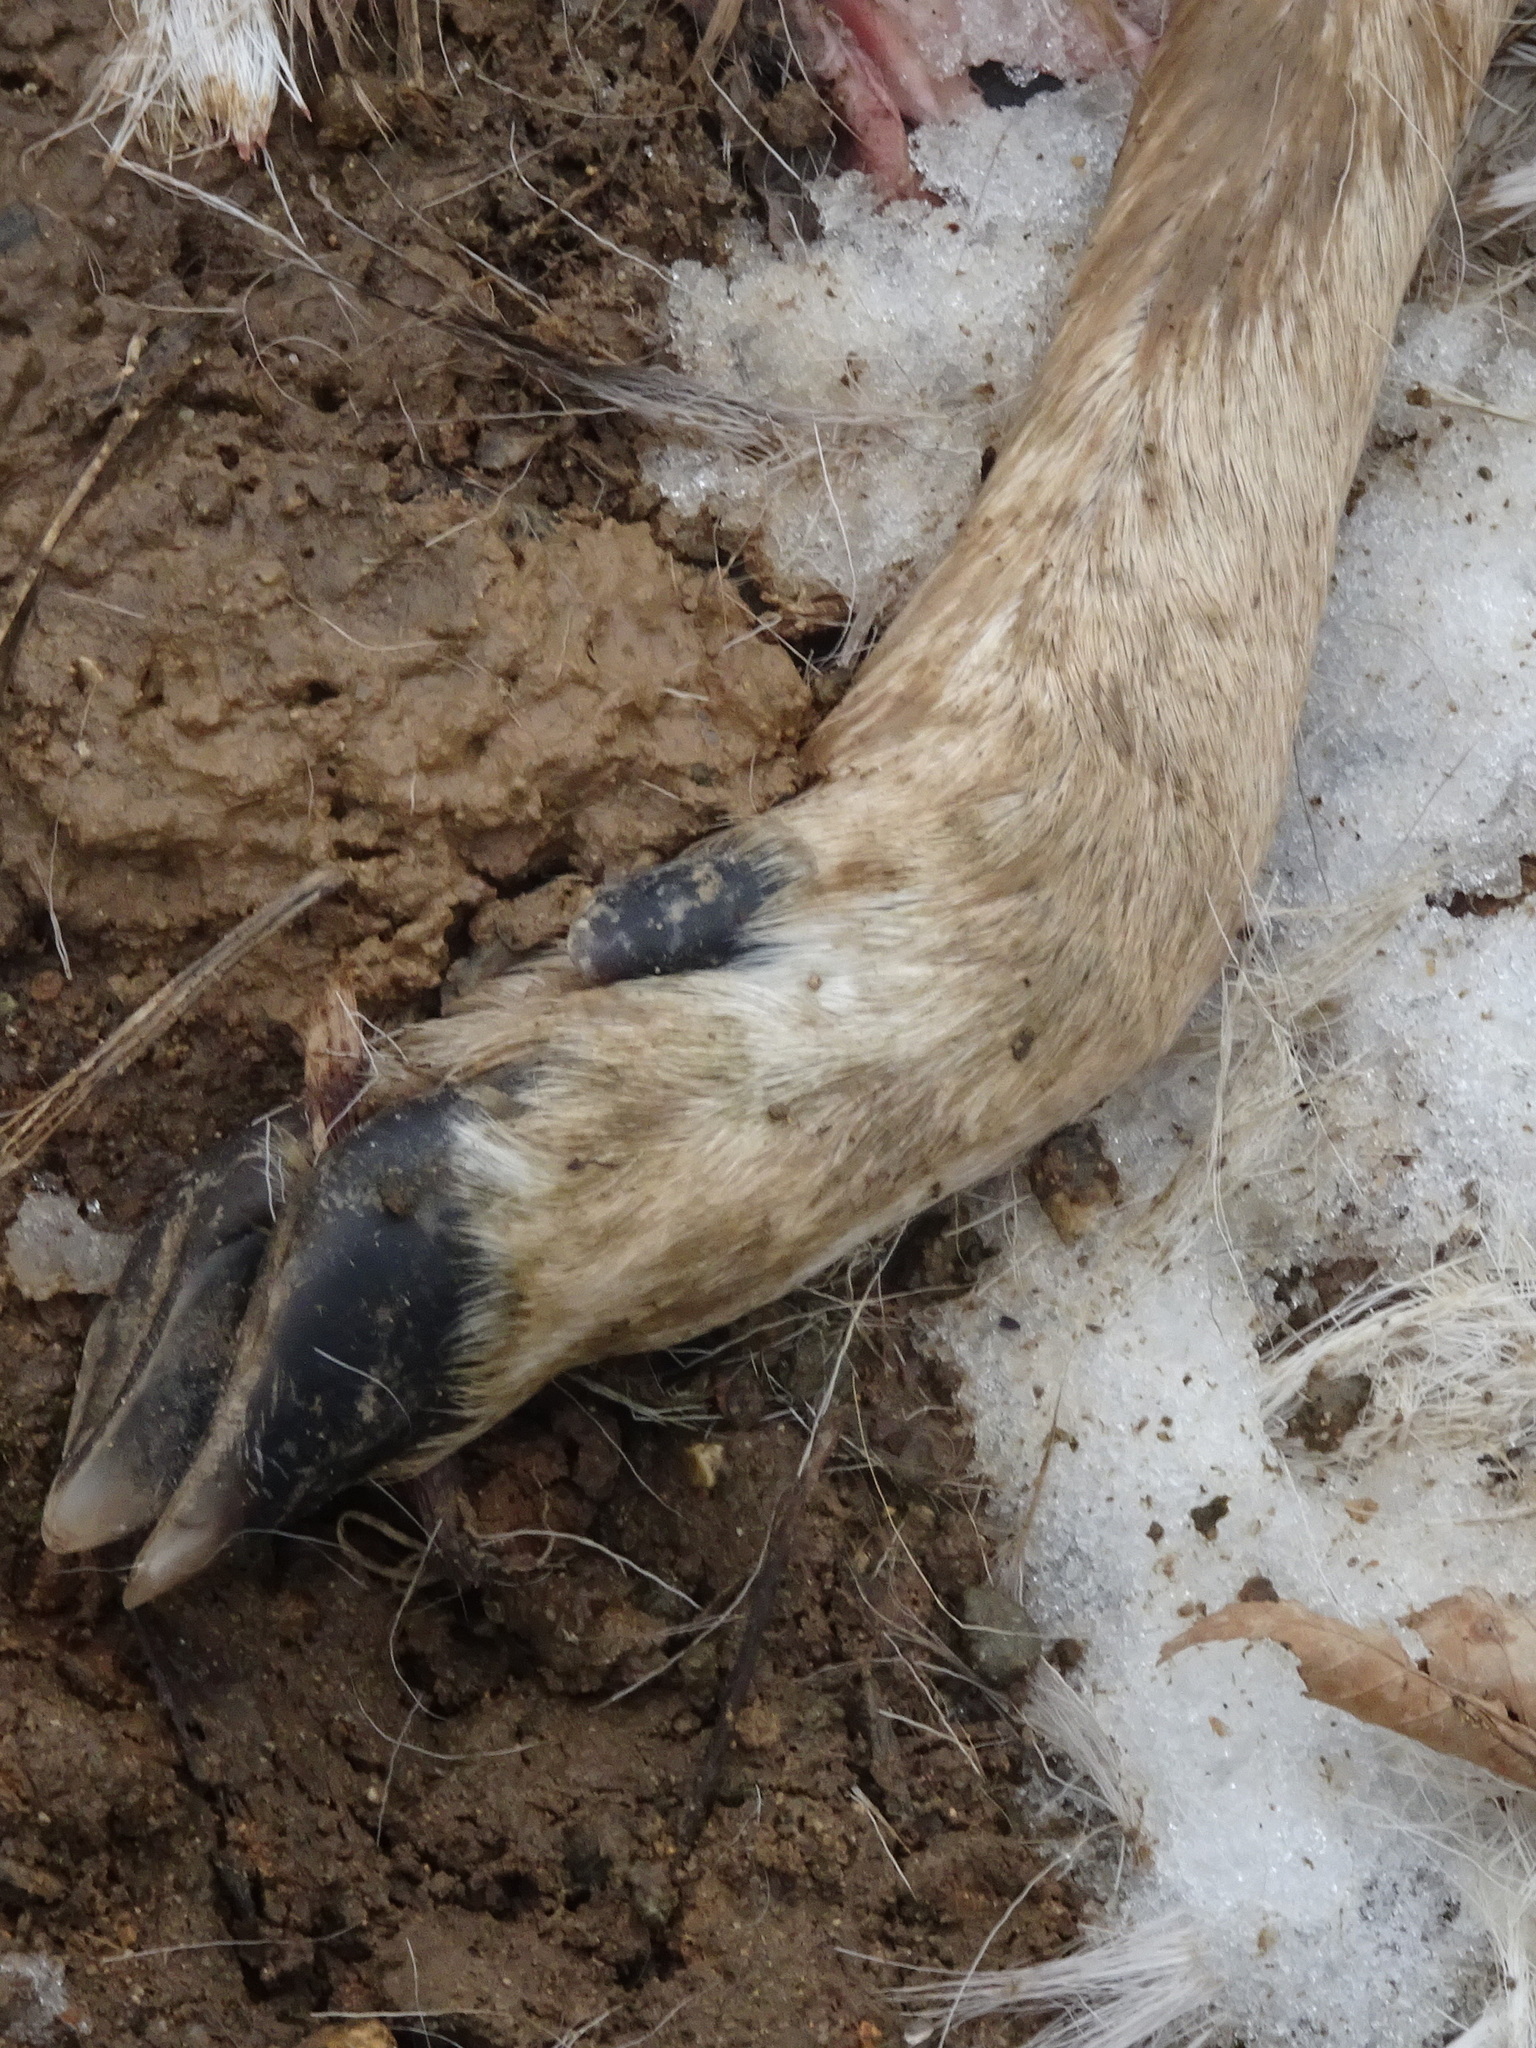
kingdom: Animalia
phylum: Chordata
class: Mammalia
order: Artiodactyla
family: Cervidae
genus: Odocoileus
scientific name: Odocoileus virginianus
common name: White-tailed deer
